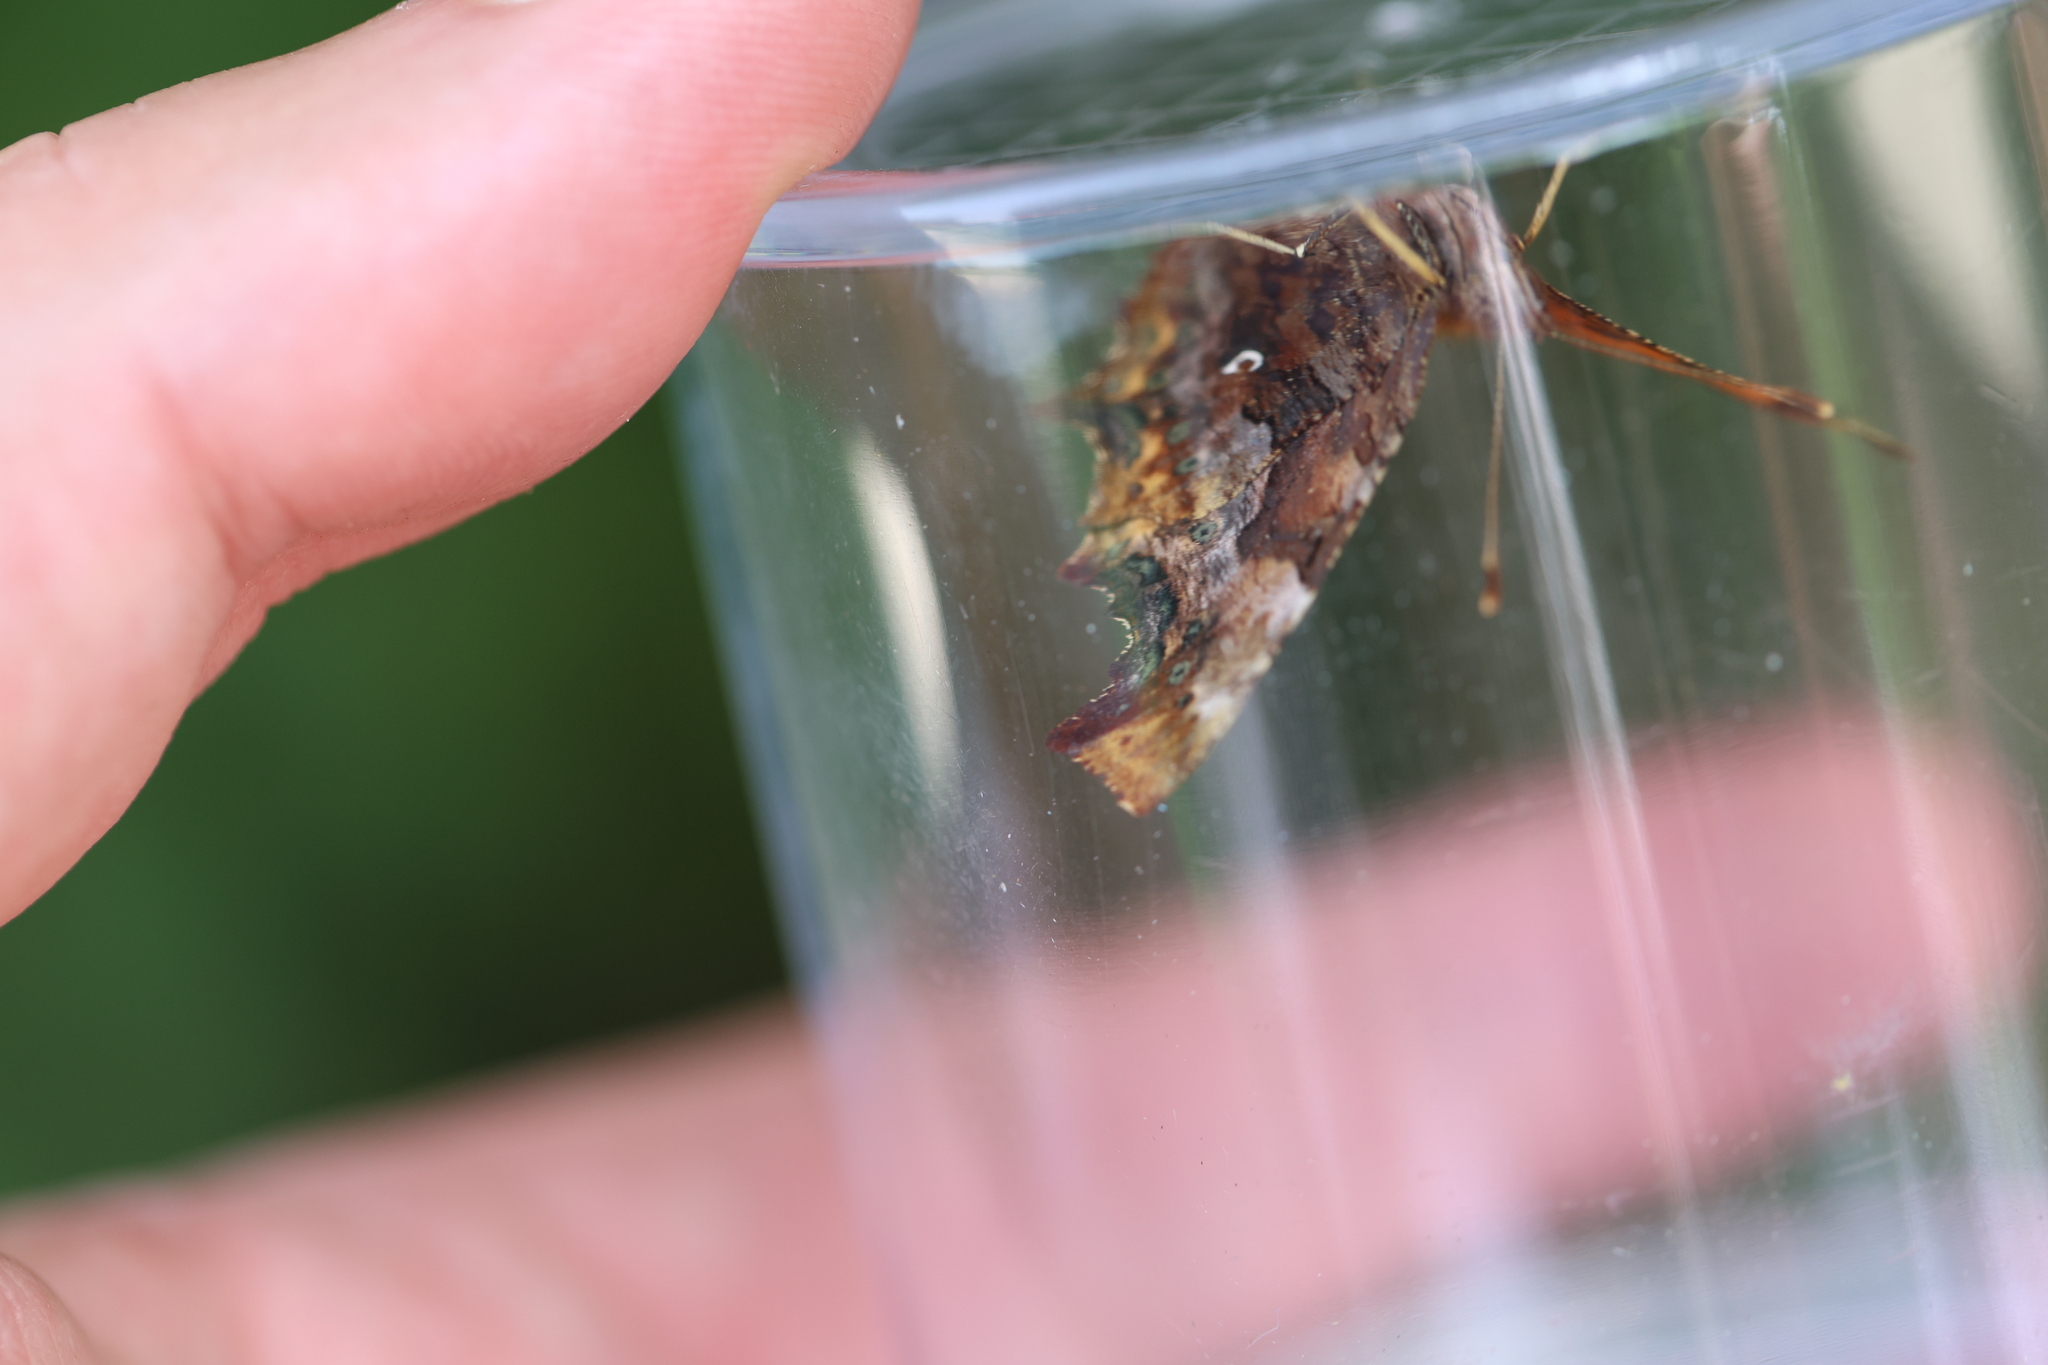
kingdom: Animalia
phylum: Arthropoda
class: Insecta
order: Lepidoptera
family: Nymphalidae
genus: Polygonia
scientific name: Polygonia c-album
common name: Comma
